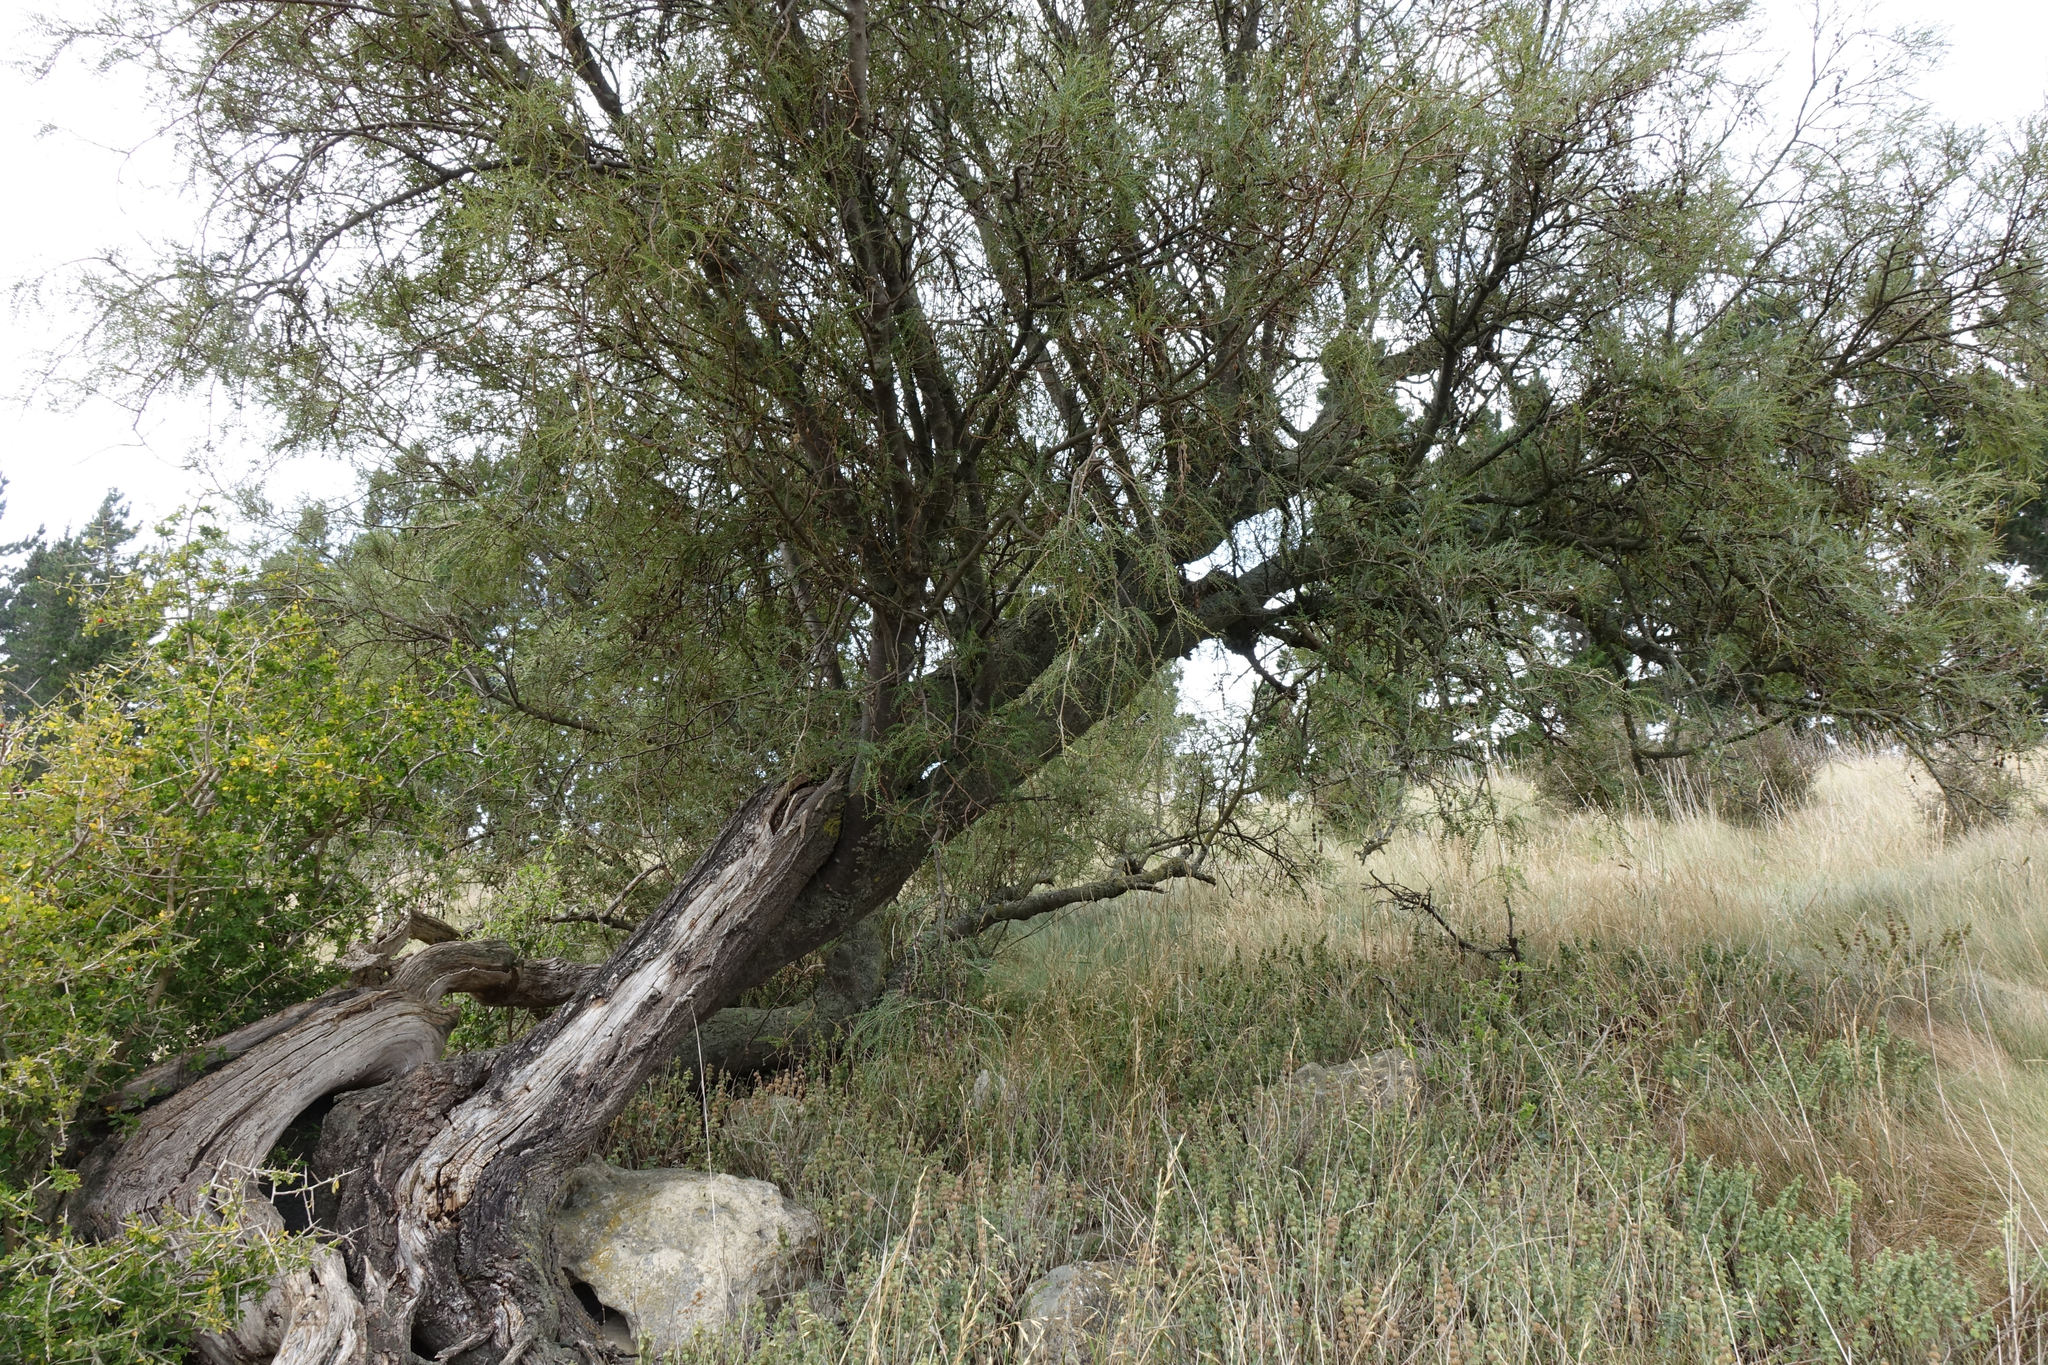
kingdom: Plantae
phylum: Tracheophyta
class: Magnoliopsida
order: Fabales
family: Fabaceae
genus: Sophora
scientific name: Sophora microphylla
